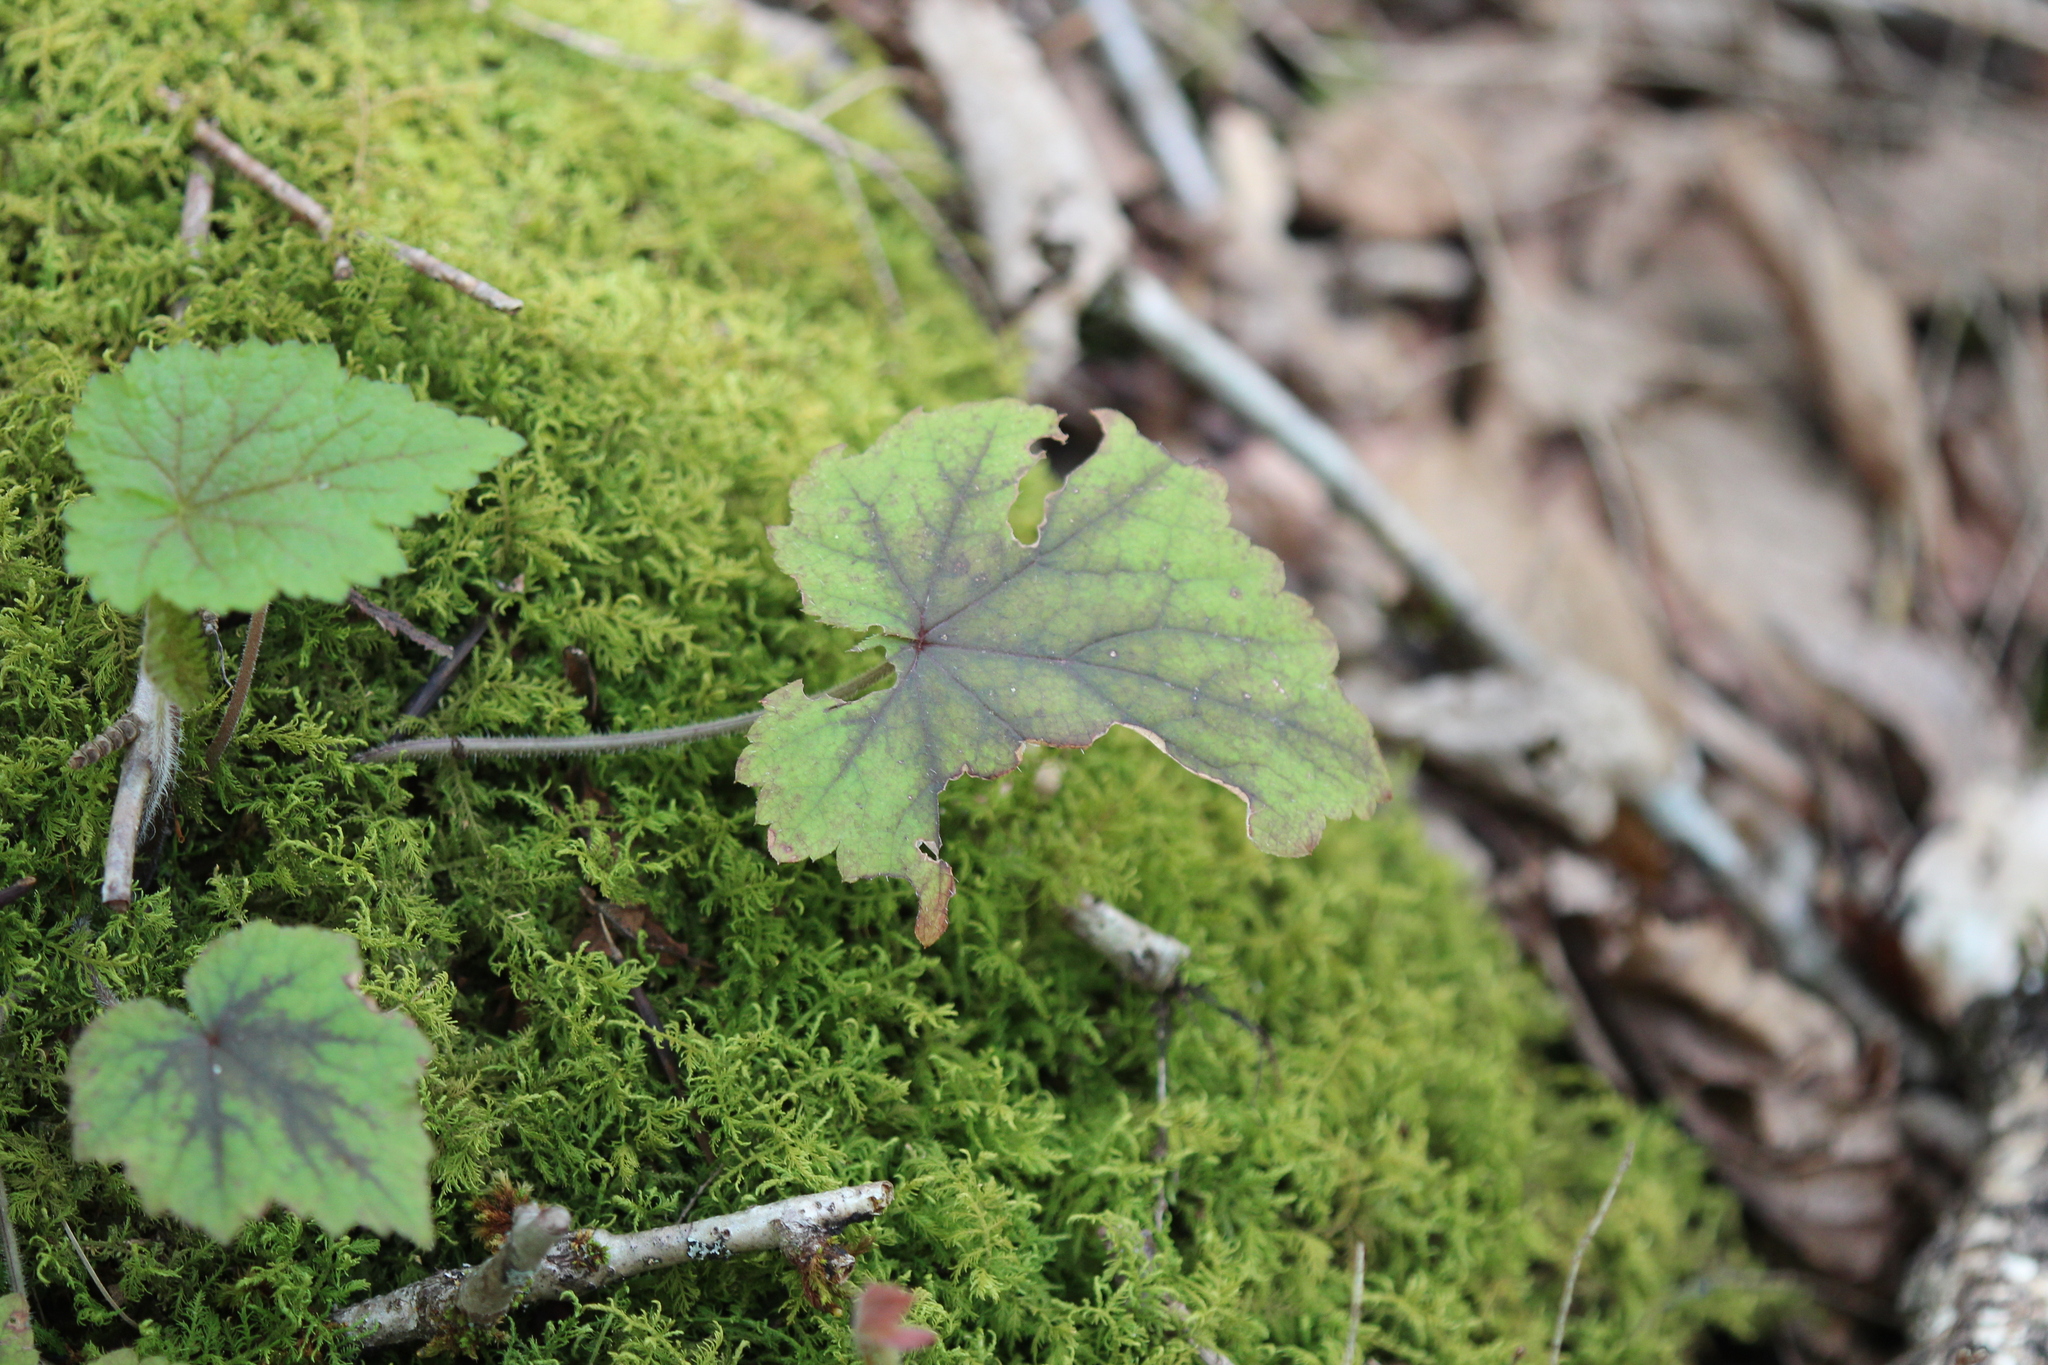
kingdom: Plantae
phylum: Tracheophyta
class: Magnoliopsida
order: Saxifragales
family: Saxifragaceae
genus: Tiarella
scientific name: Tiarella stolonifera
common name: Stoloniferous foamflower
